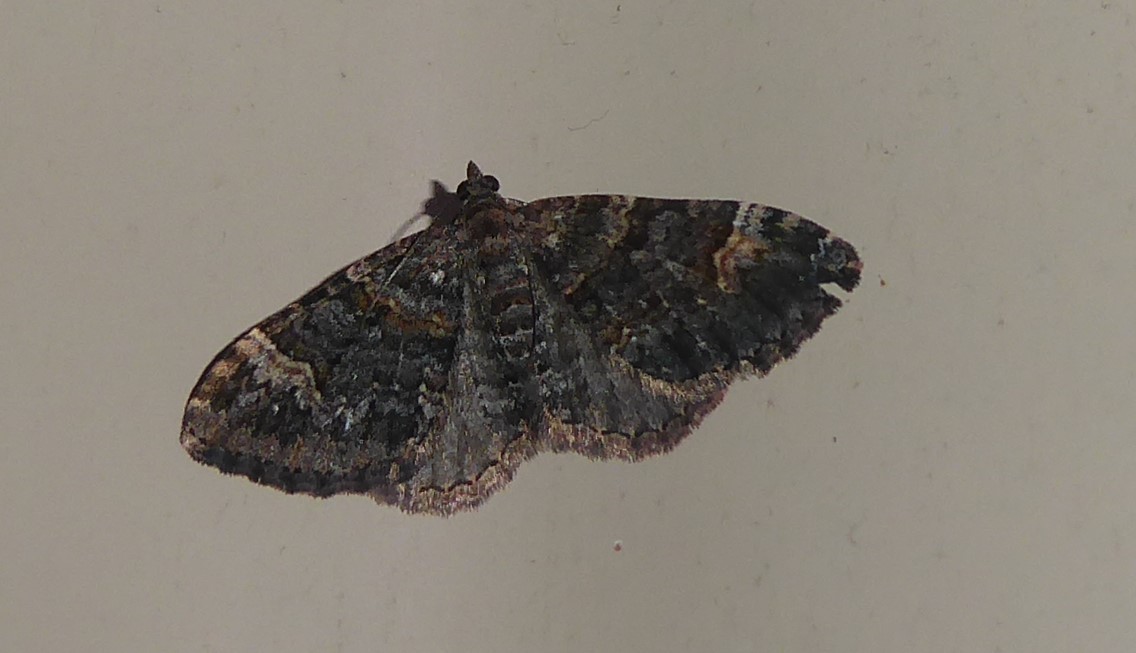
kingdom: Animalia
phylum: Arthropoda
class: Insecta
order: Lepidoptera
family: Geometridae
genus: Epyaxa
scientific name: Epyaxa sodaliata
